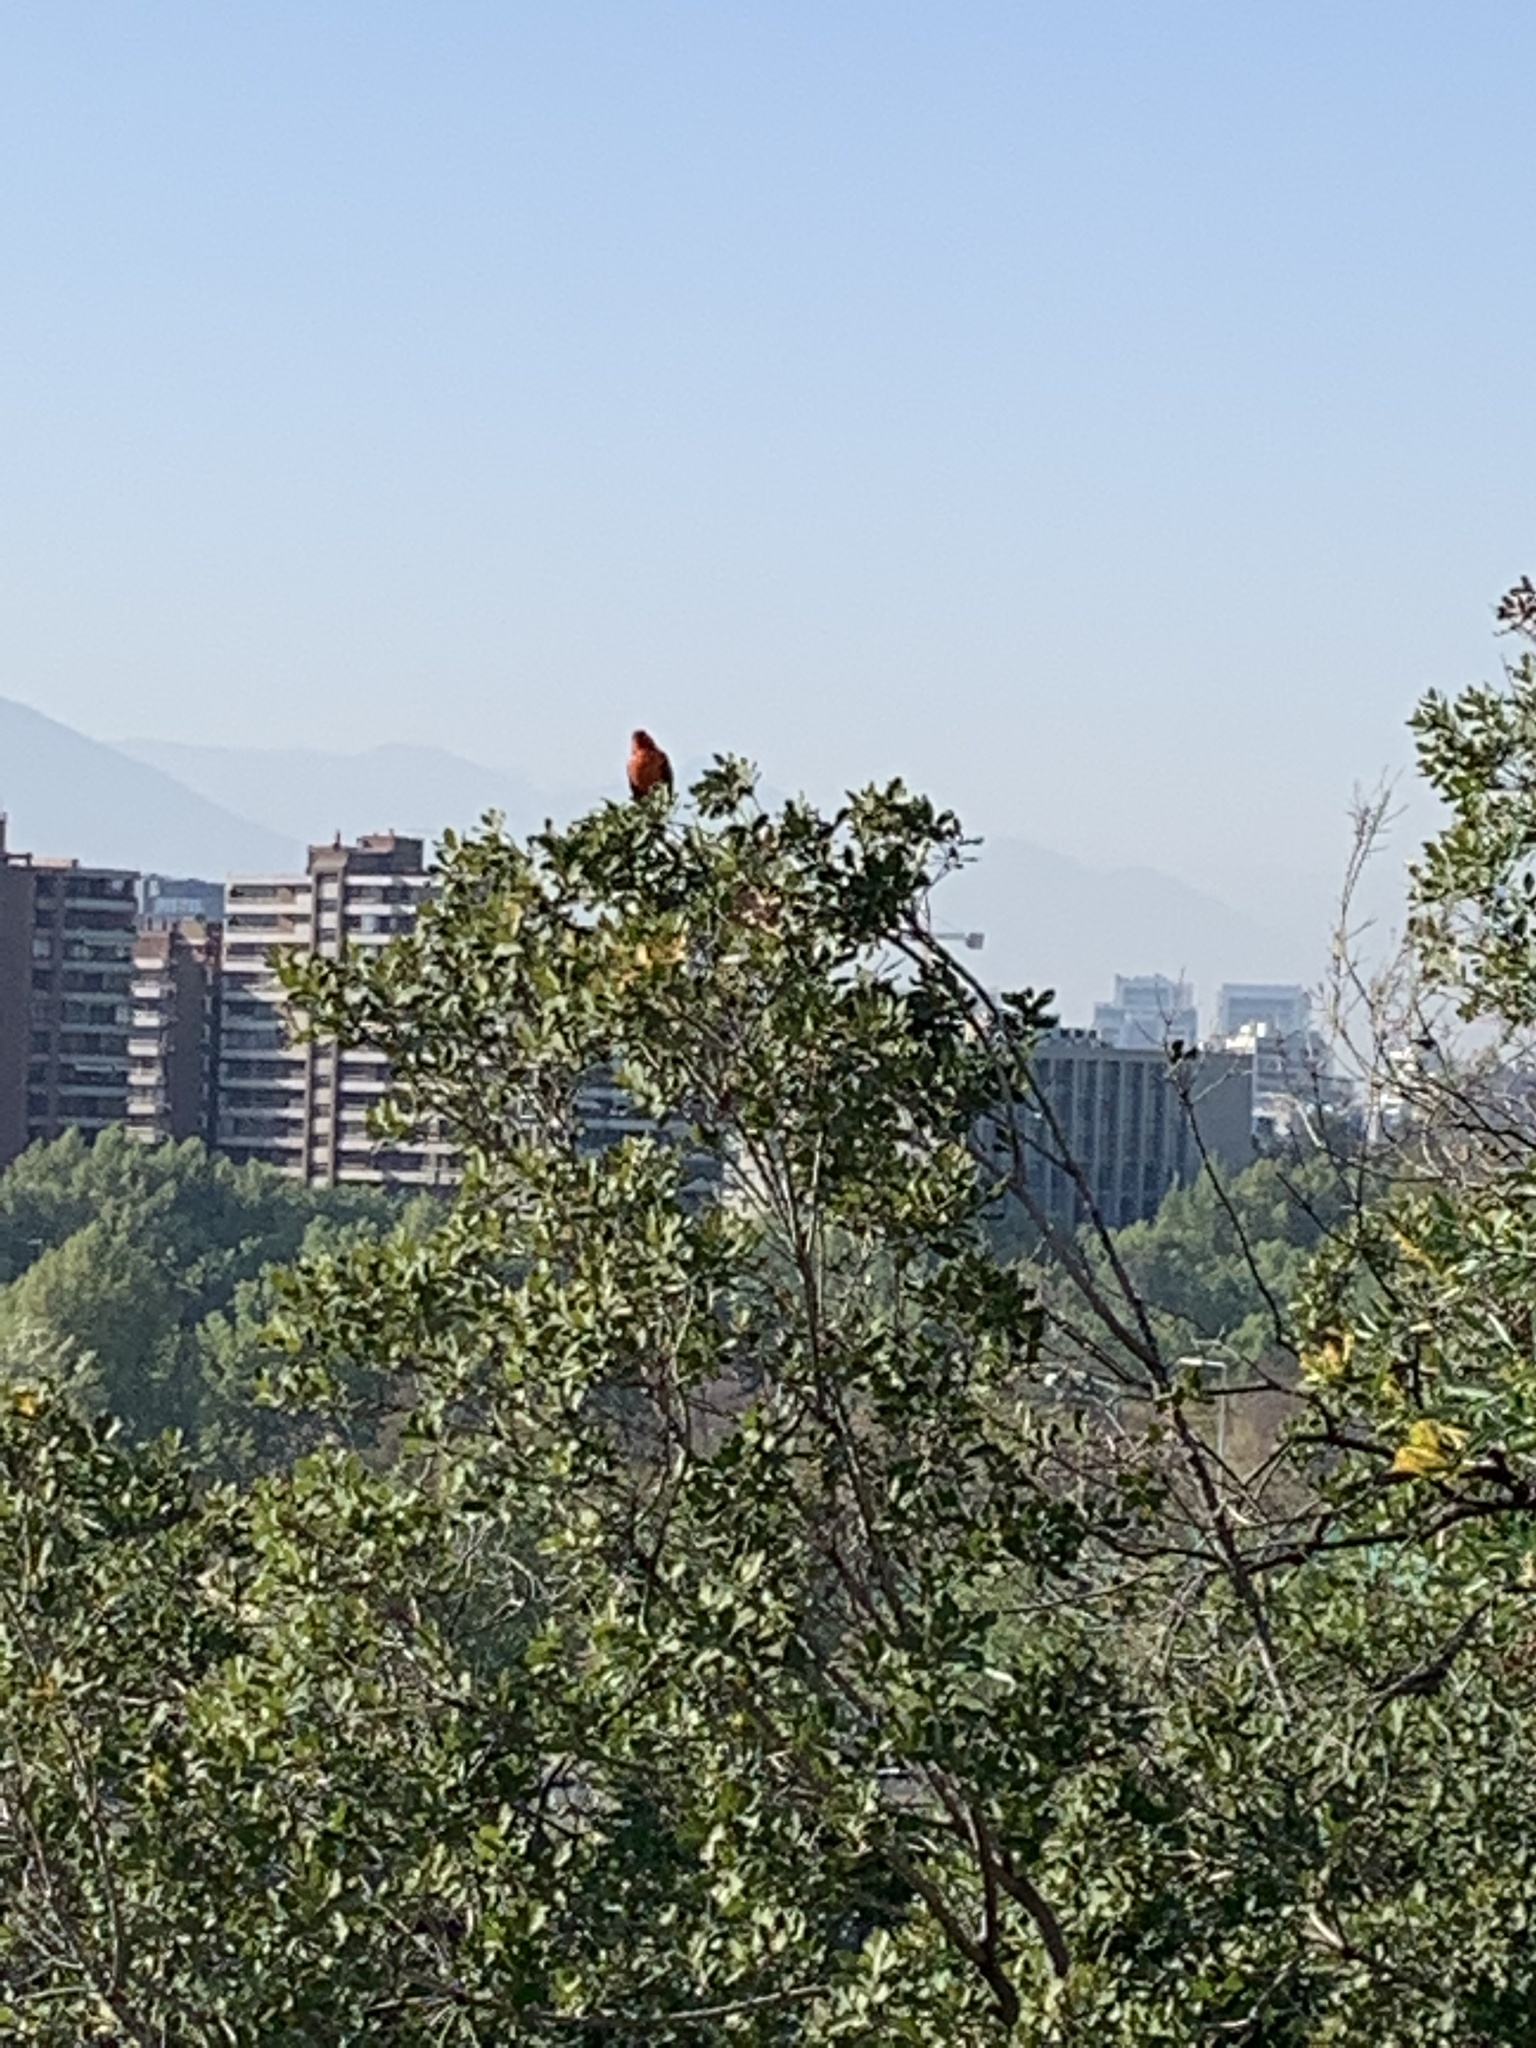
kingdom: Animalia
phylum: Chordata
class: Aves
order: Passeriformes
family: Icteridae
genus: Sturnella
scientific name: Sturnella loyca
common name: Long-tailed meadowlark
